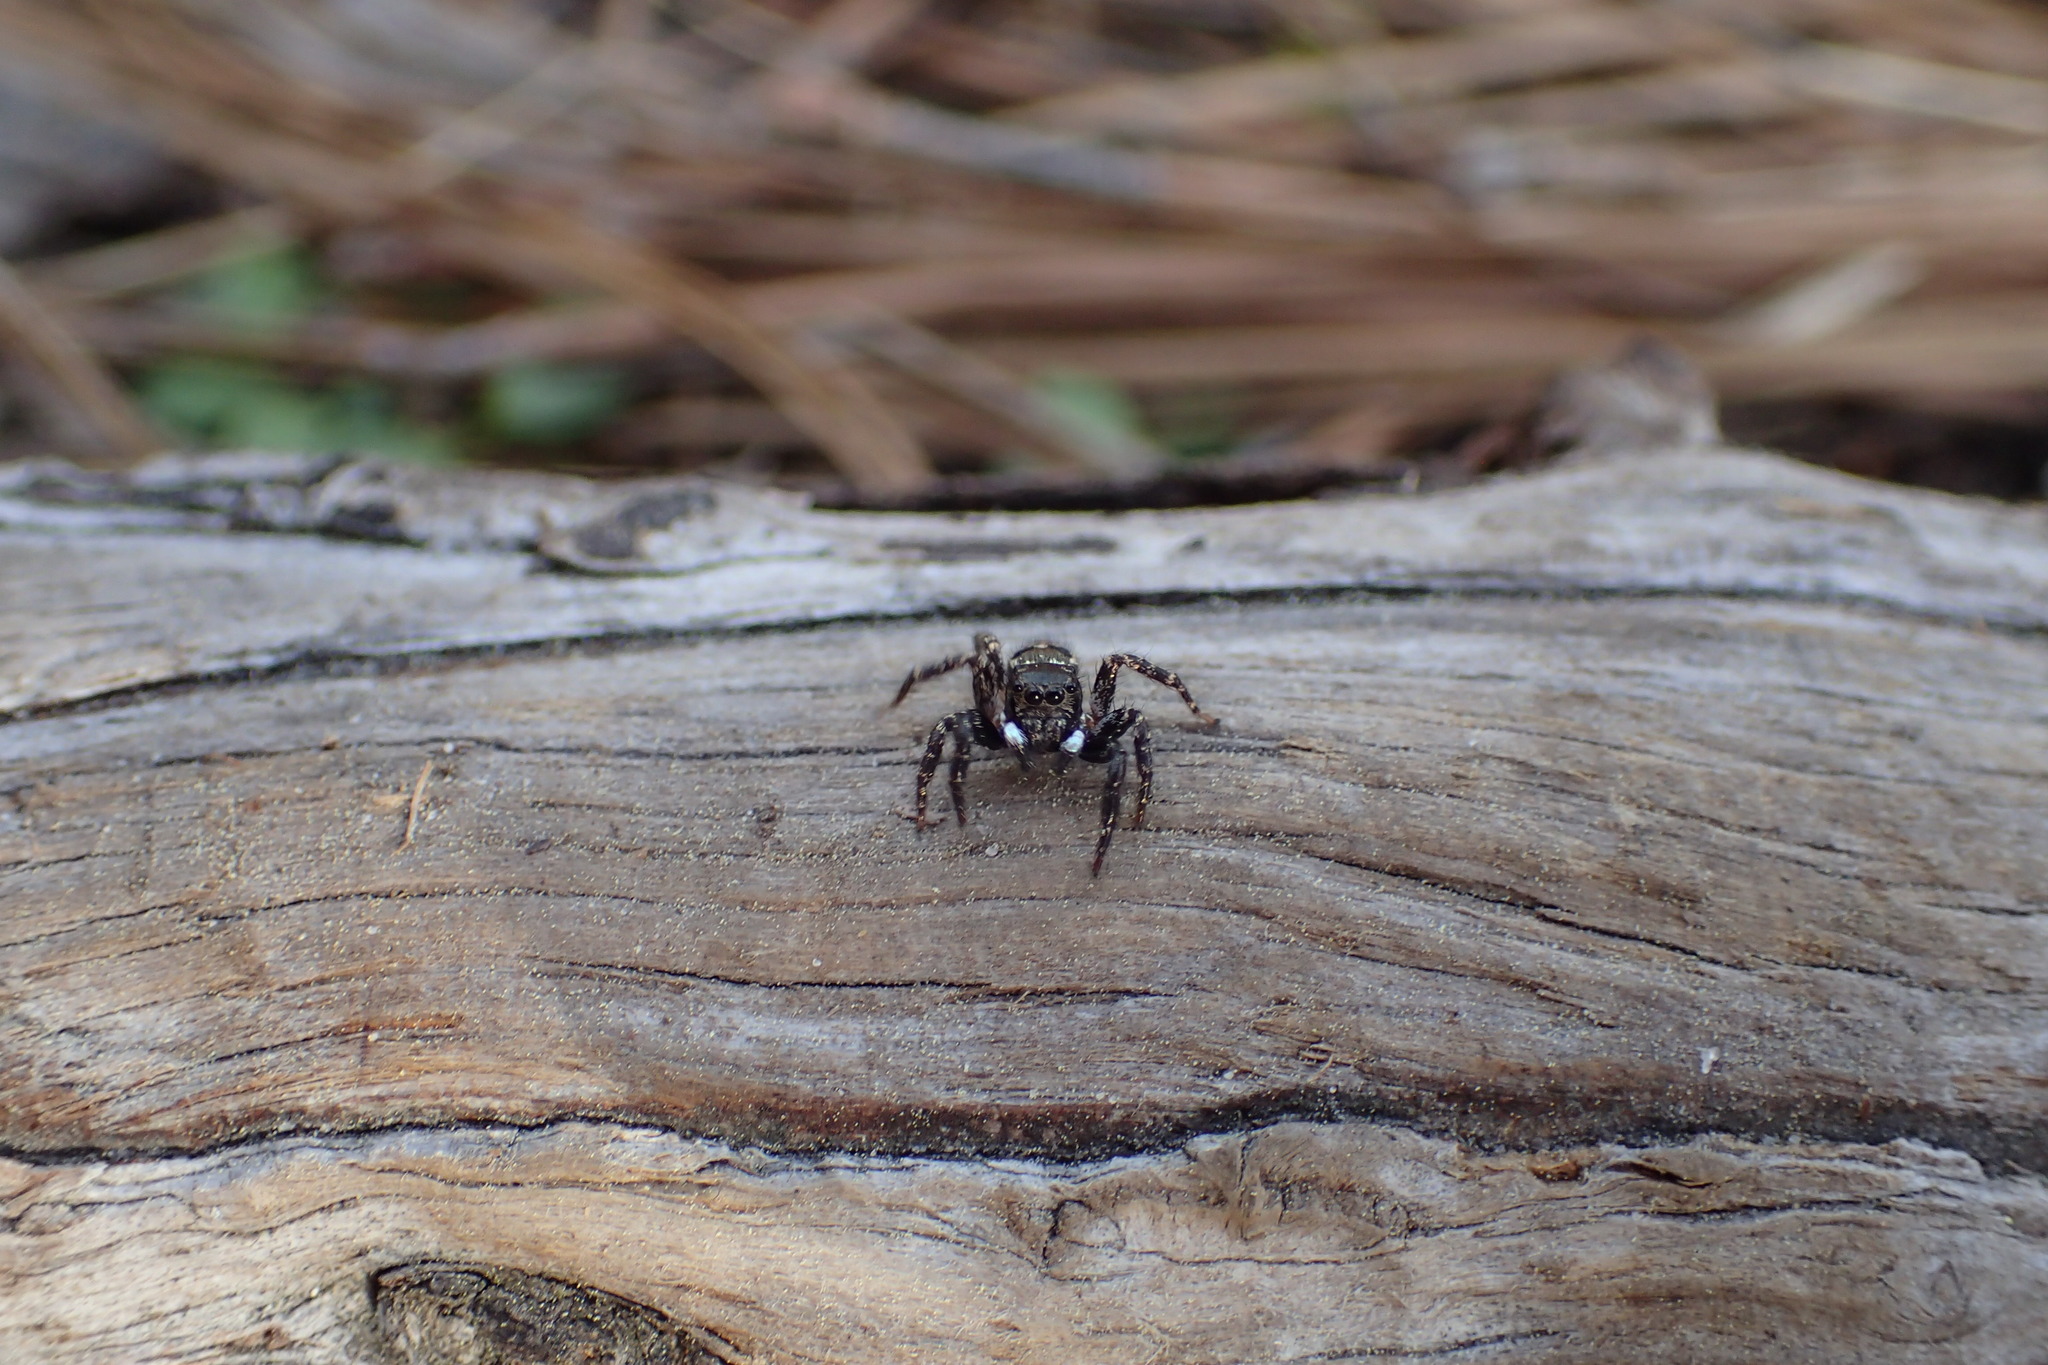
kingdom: Animalia
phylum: Arthropoda
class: Arachnida
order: Araneae
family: Salticidae
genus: Anasaitis
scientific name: Anasaitis canosa
